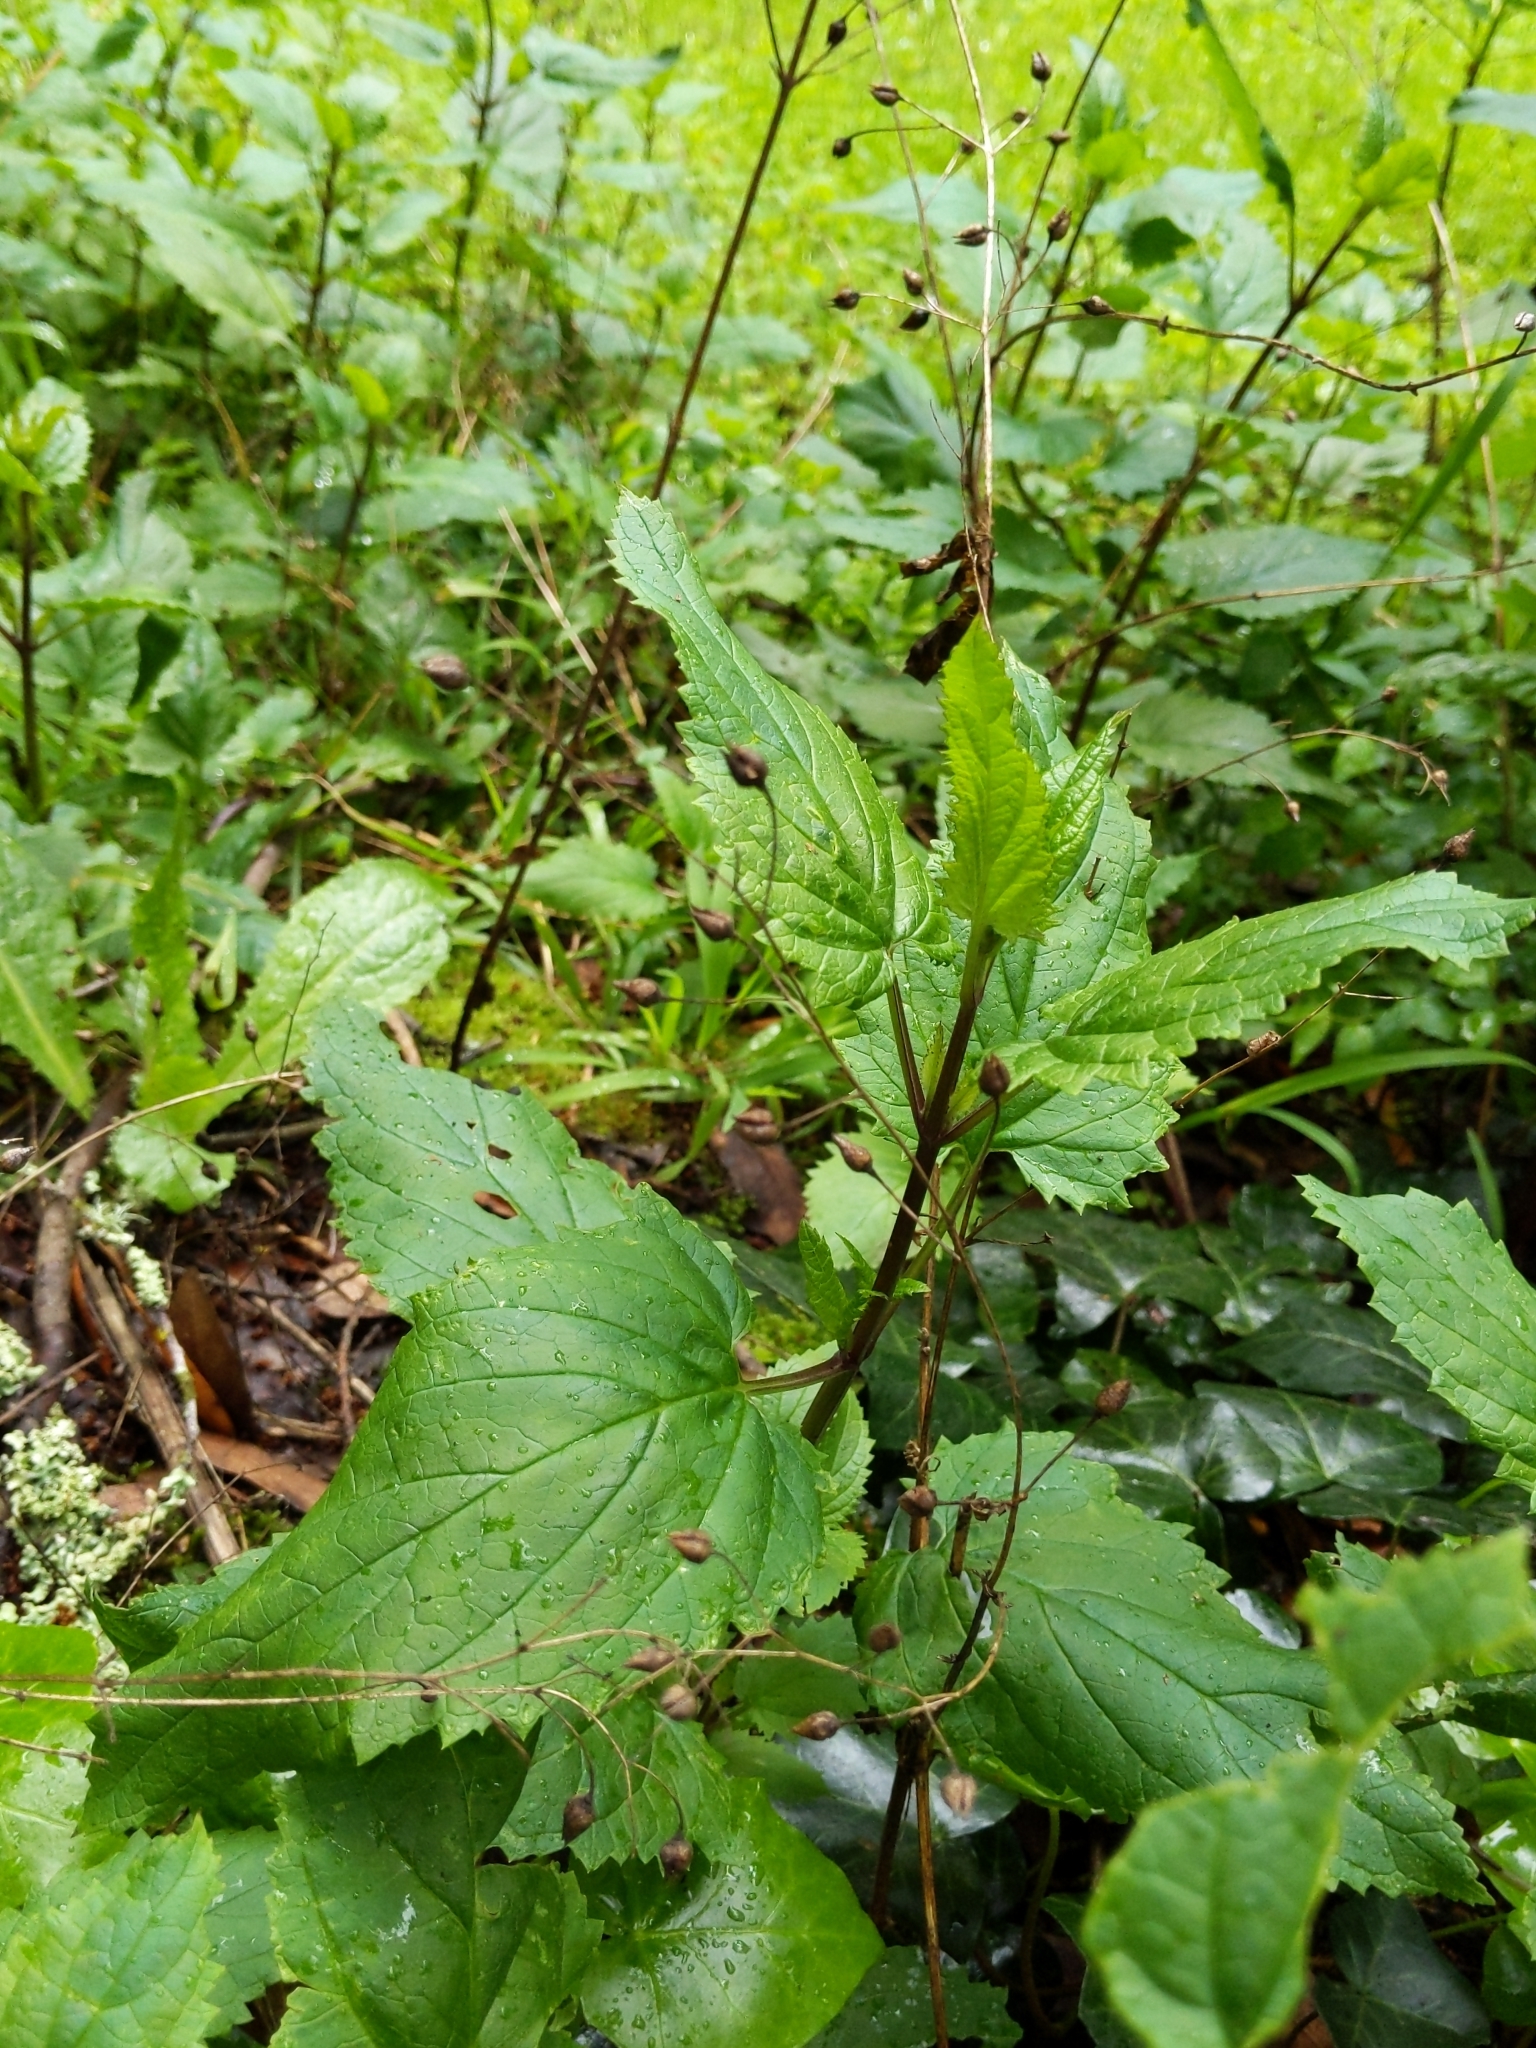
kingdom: Plantae
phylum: Tracheophyta
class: Magnoliopsida
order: Lamiales
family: Scrophulariaceae
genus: Scrophularia
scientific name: Scrophularia californica
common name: California figwort
